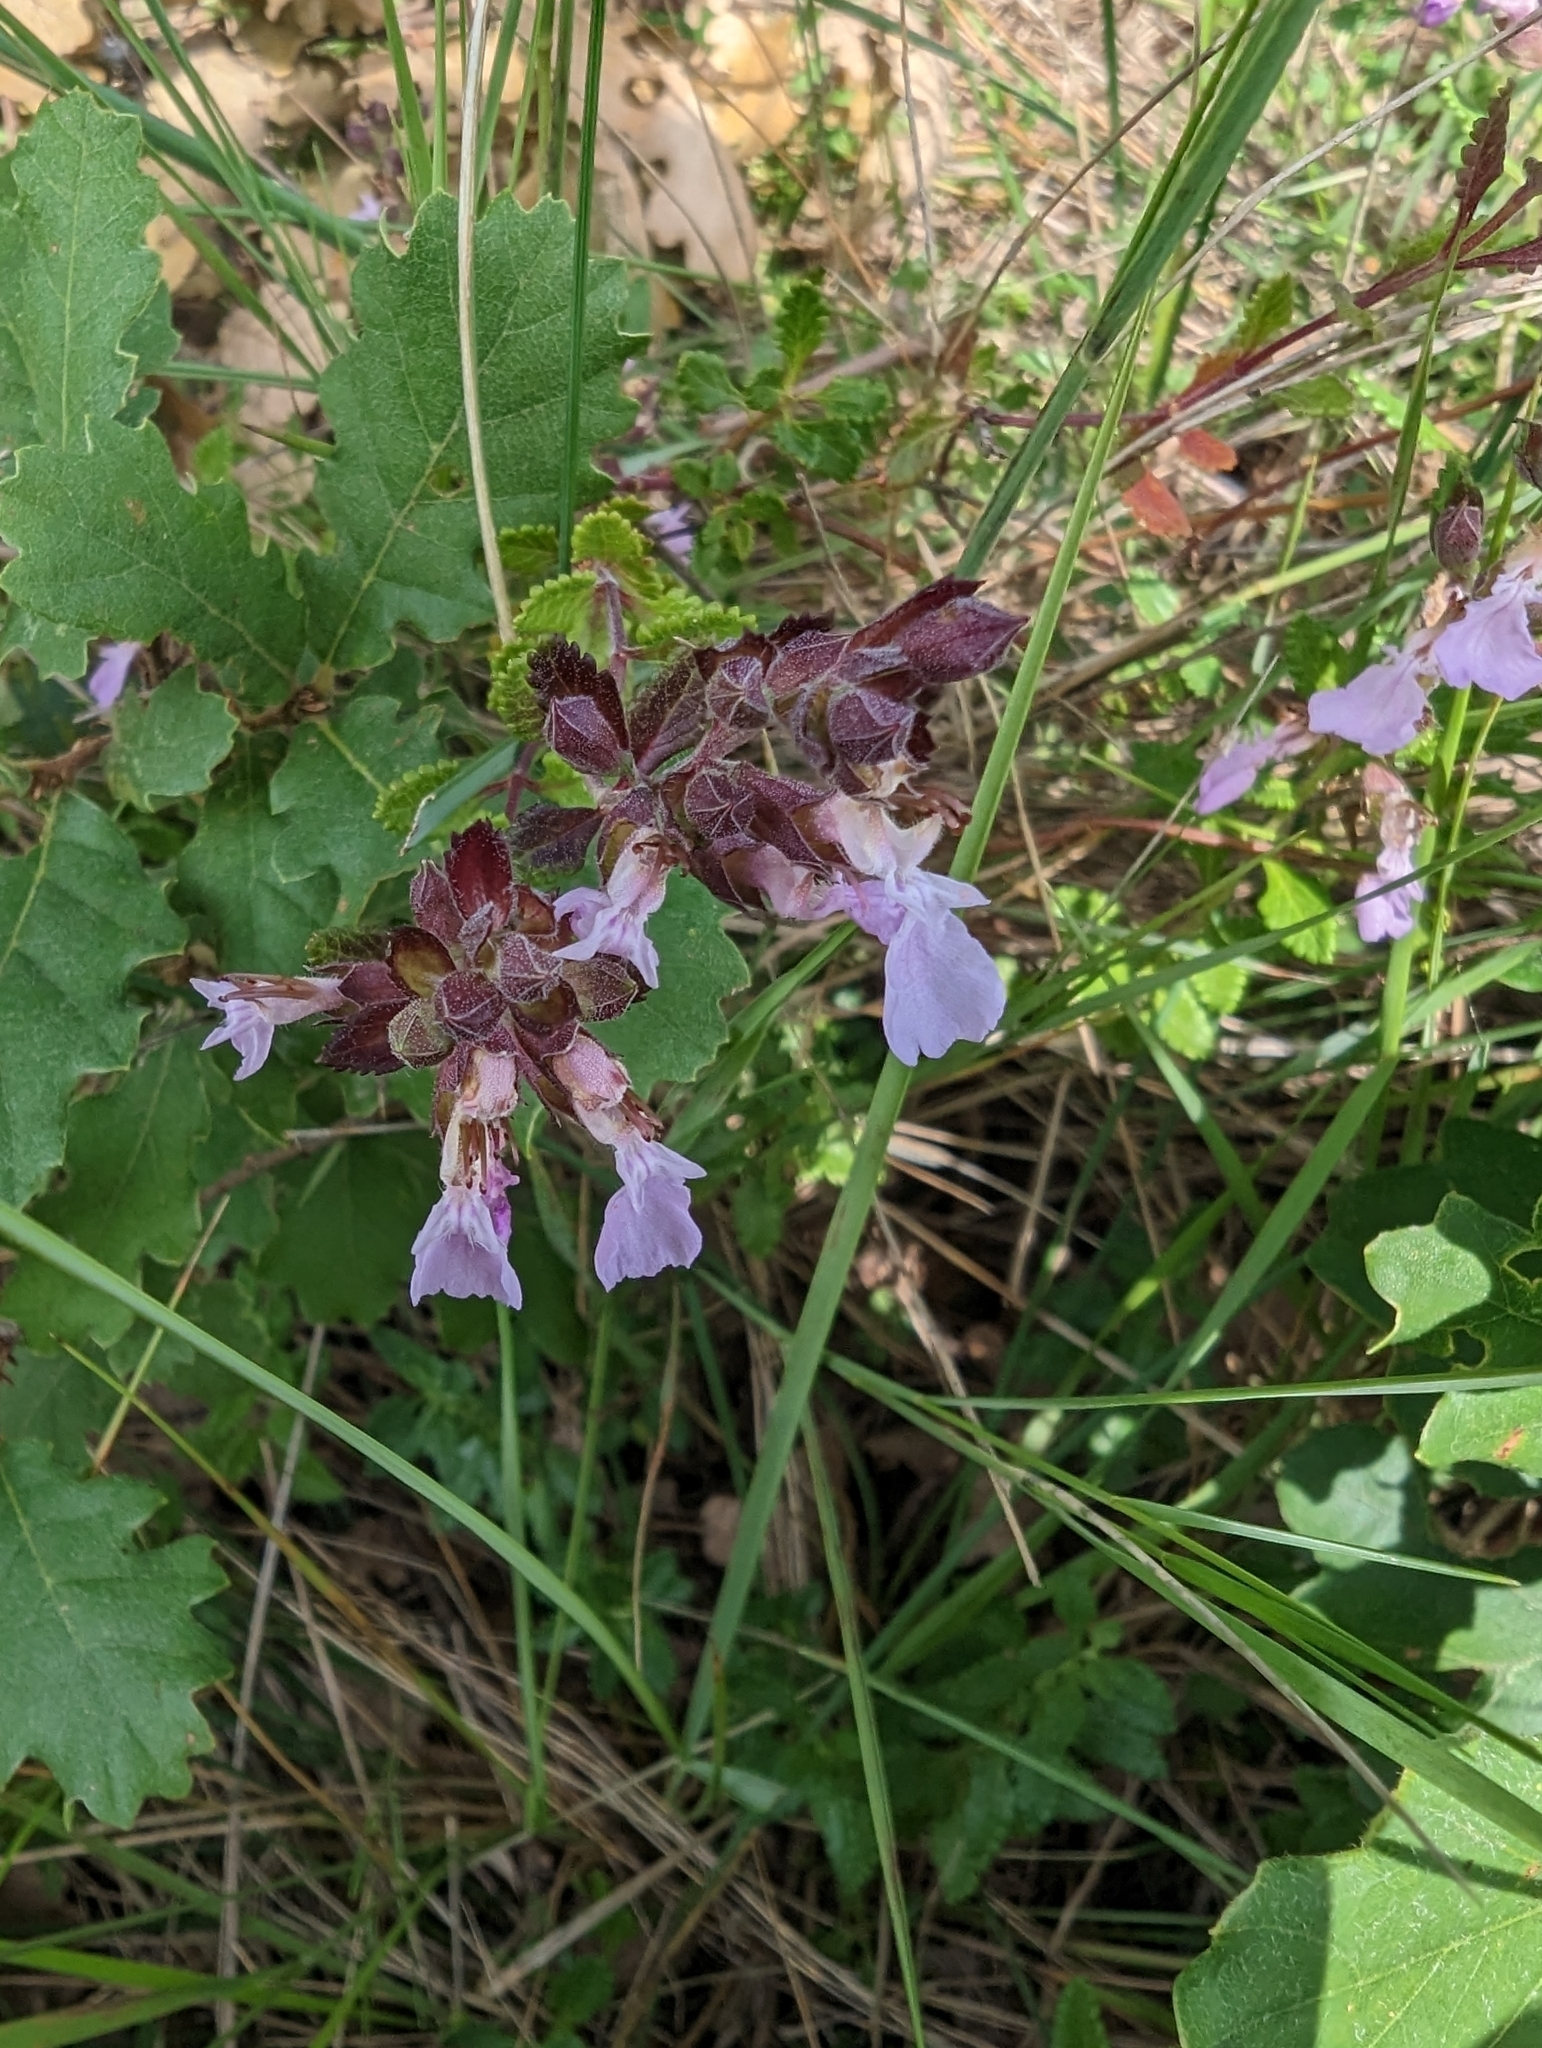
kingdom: Plantae
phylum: Tracheophyta
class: Magnoliopsida
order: Lamiales
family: Lamiaceae
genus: Teucrium
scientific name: Teucrium chamaedrys
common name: Wall germander
